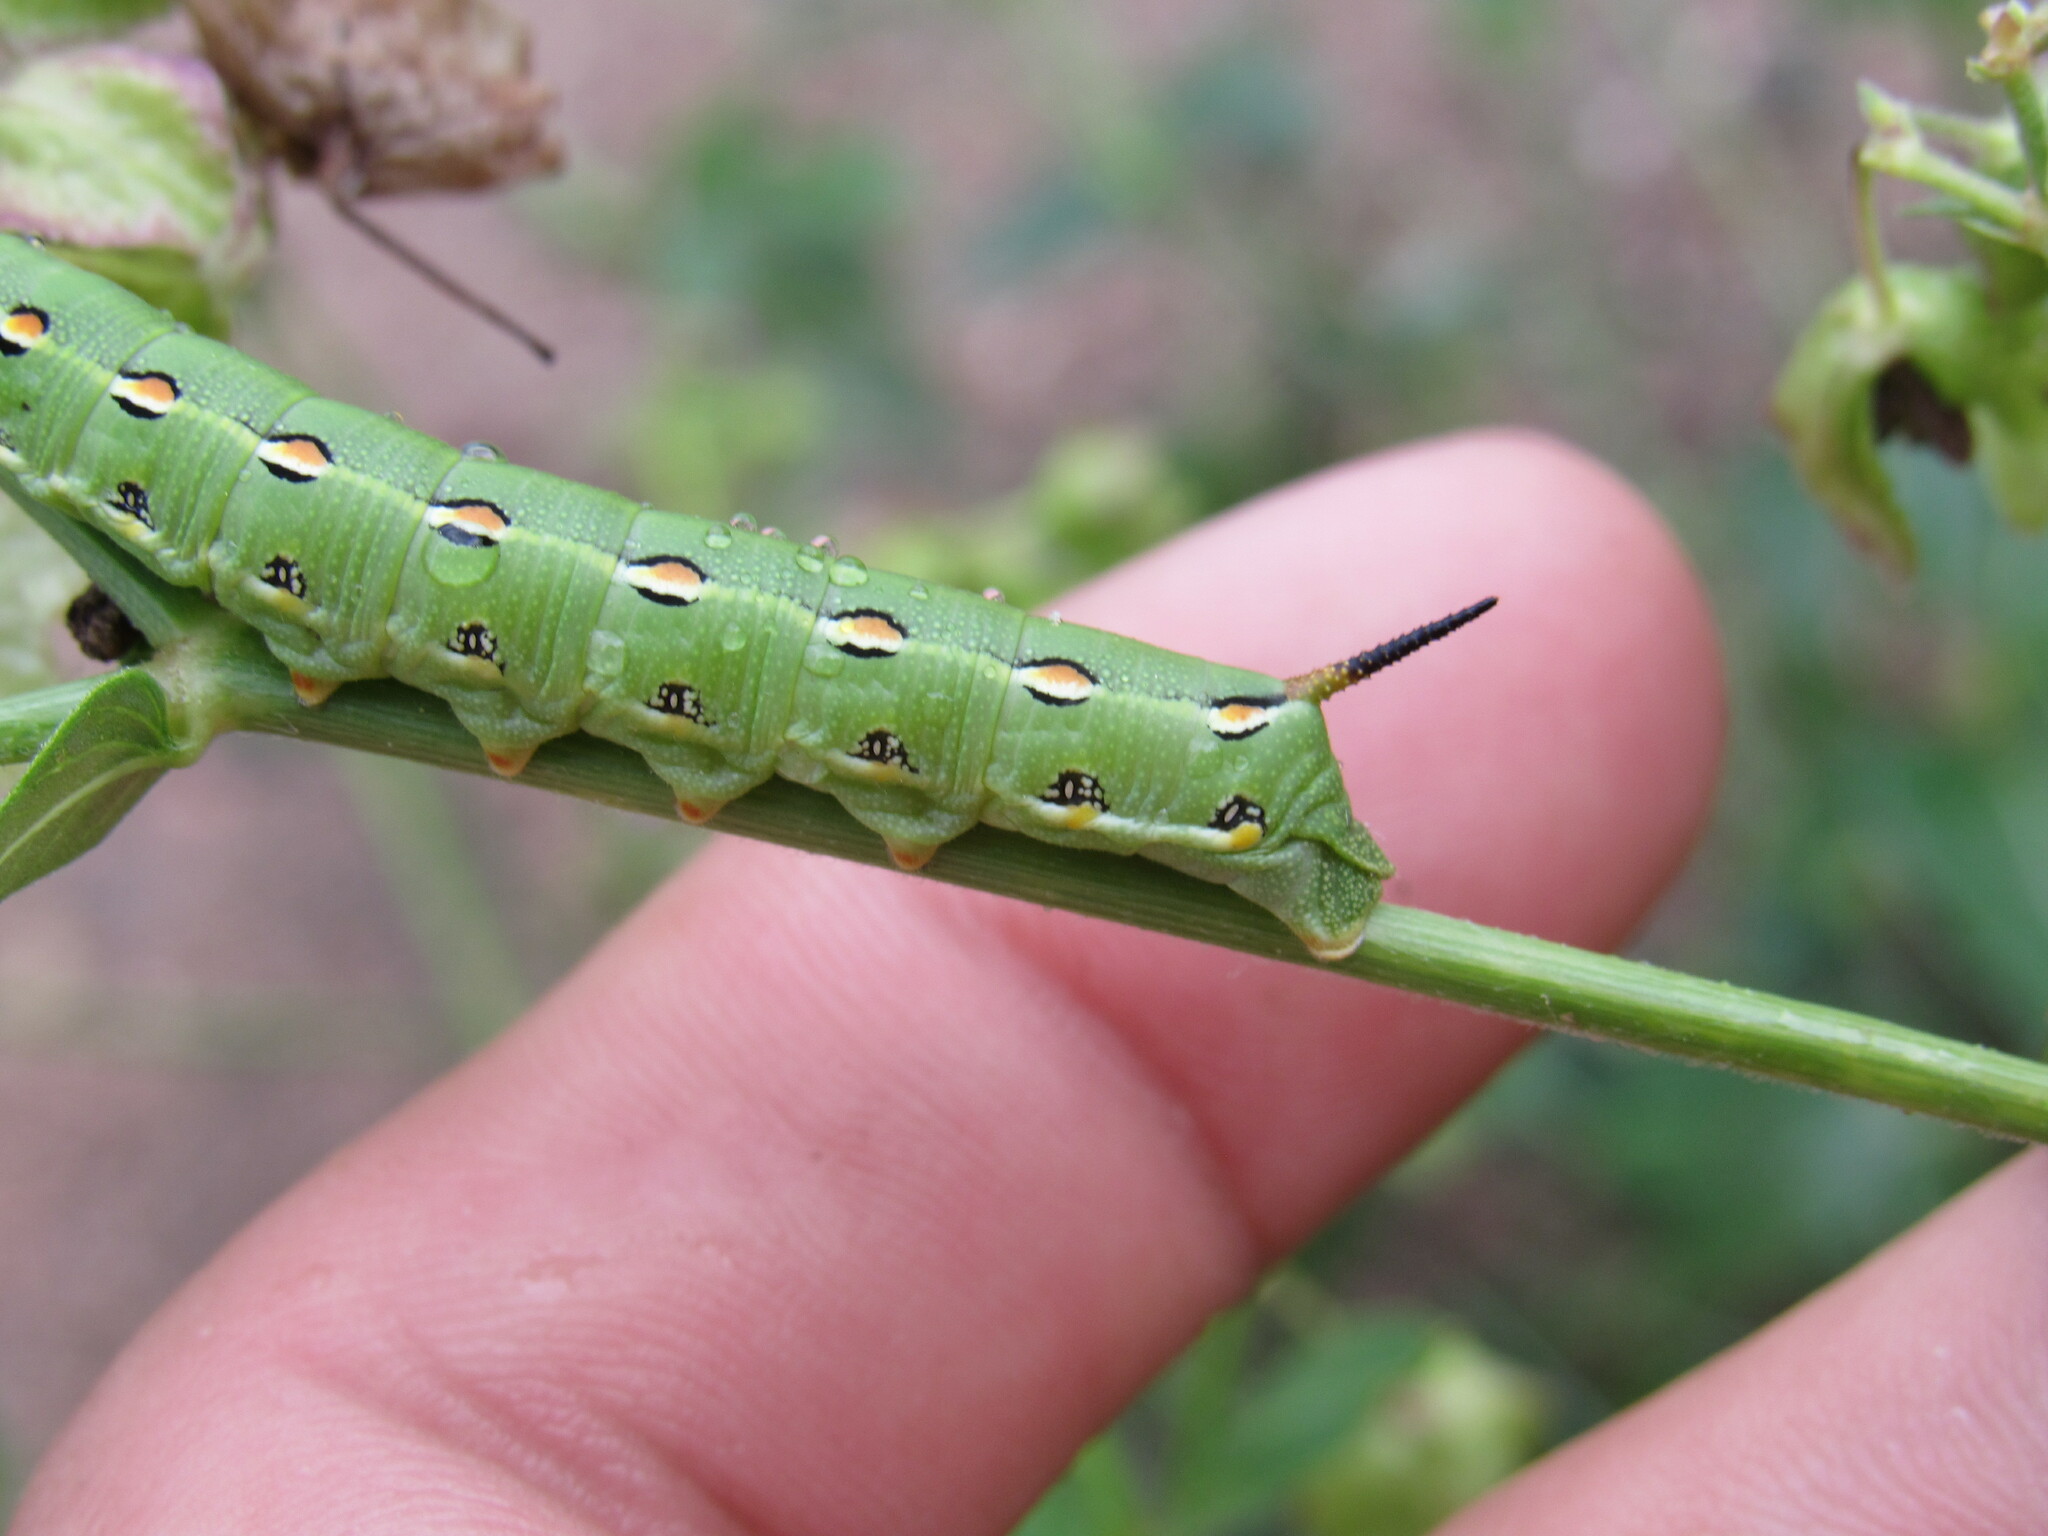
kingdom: Animalia
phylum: Arthropoda
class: Insecta
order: Lepidoptera
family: Sphingidae
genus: Hyles
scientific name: Hyles lineata
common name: White-lined sphinx
